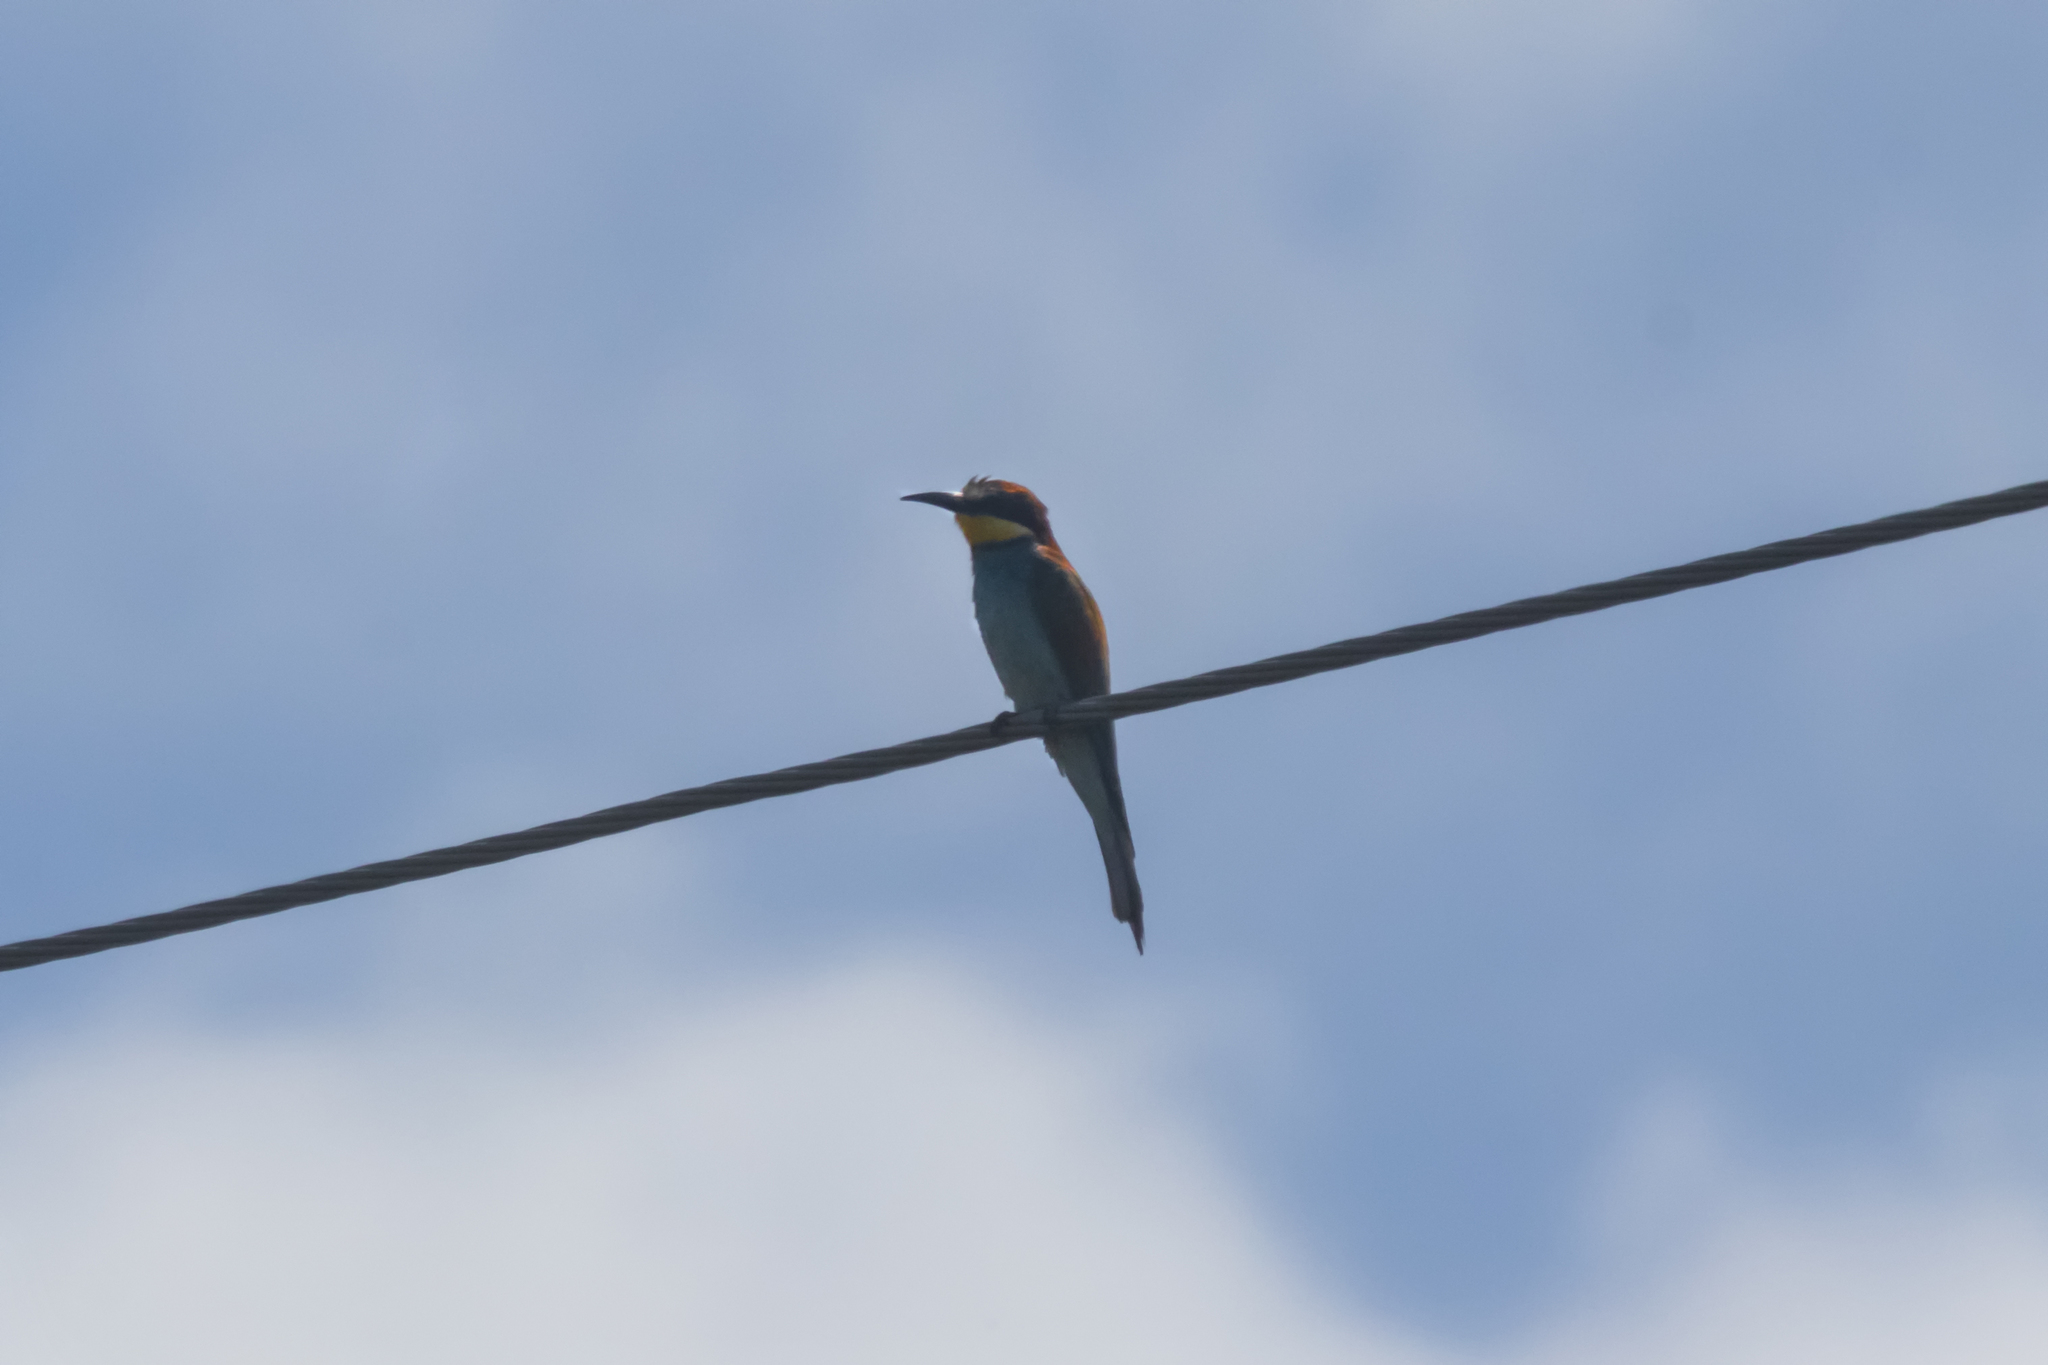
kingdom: Animalia
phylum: Chordata
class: Aves
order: Coraciiformes
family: Meropidae
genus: Merops
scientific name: Merops apiaster
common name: European bee-eater
